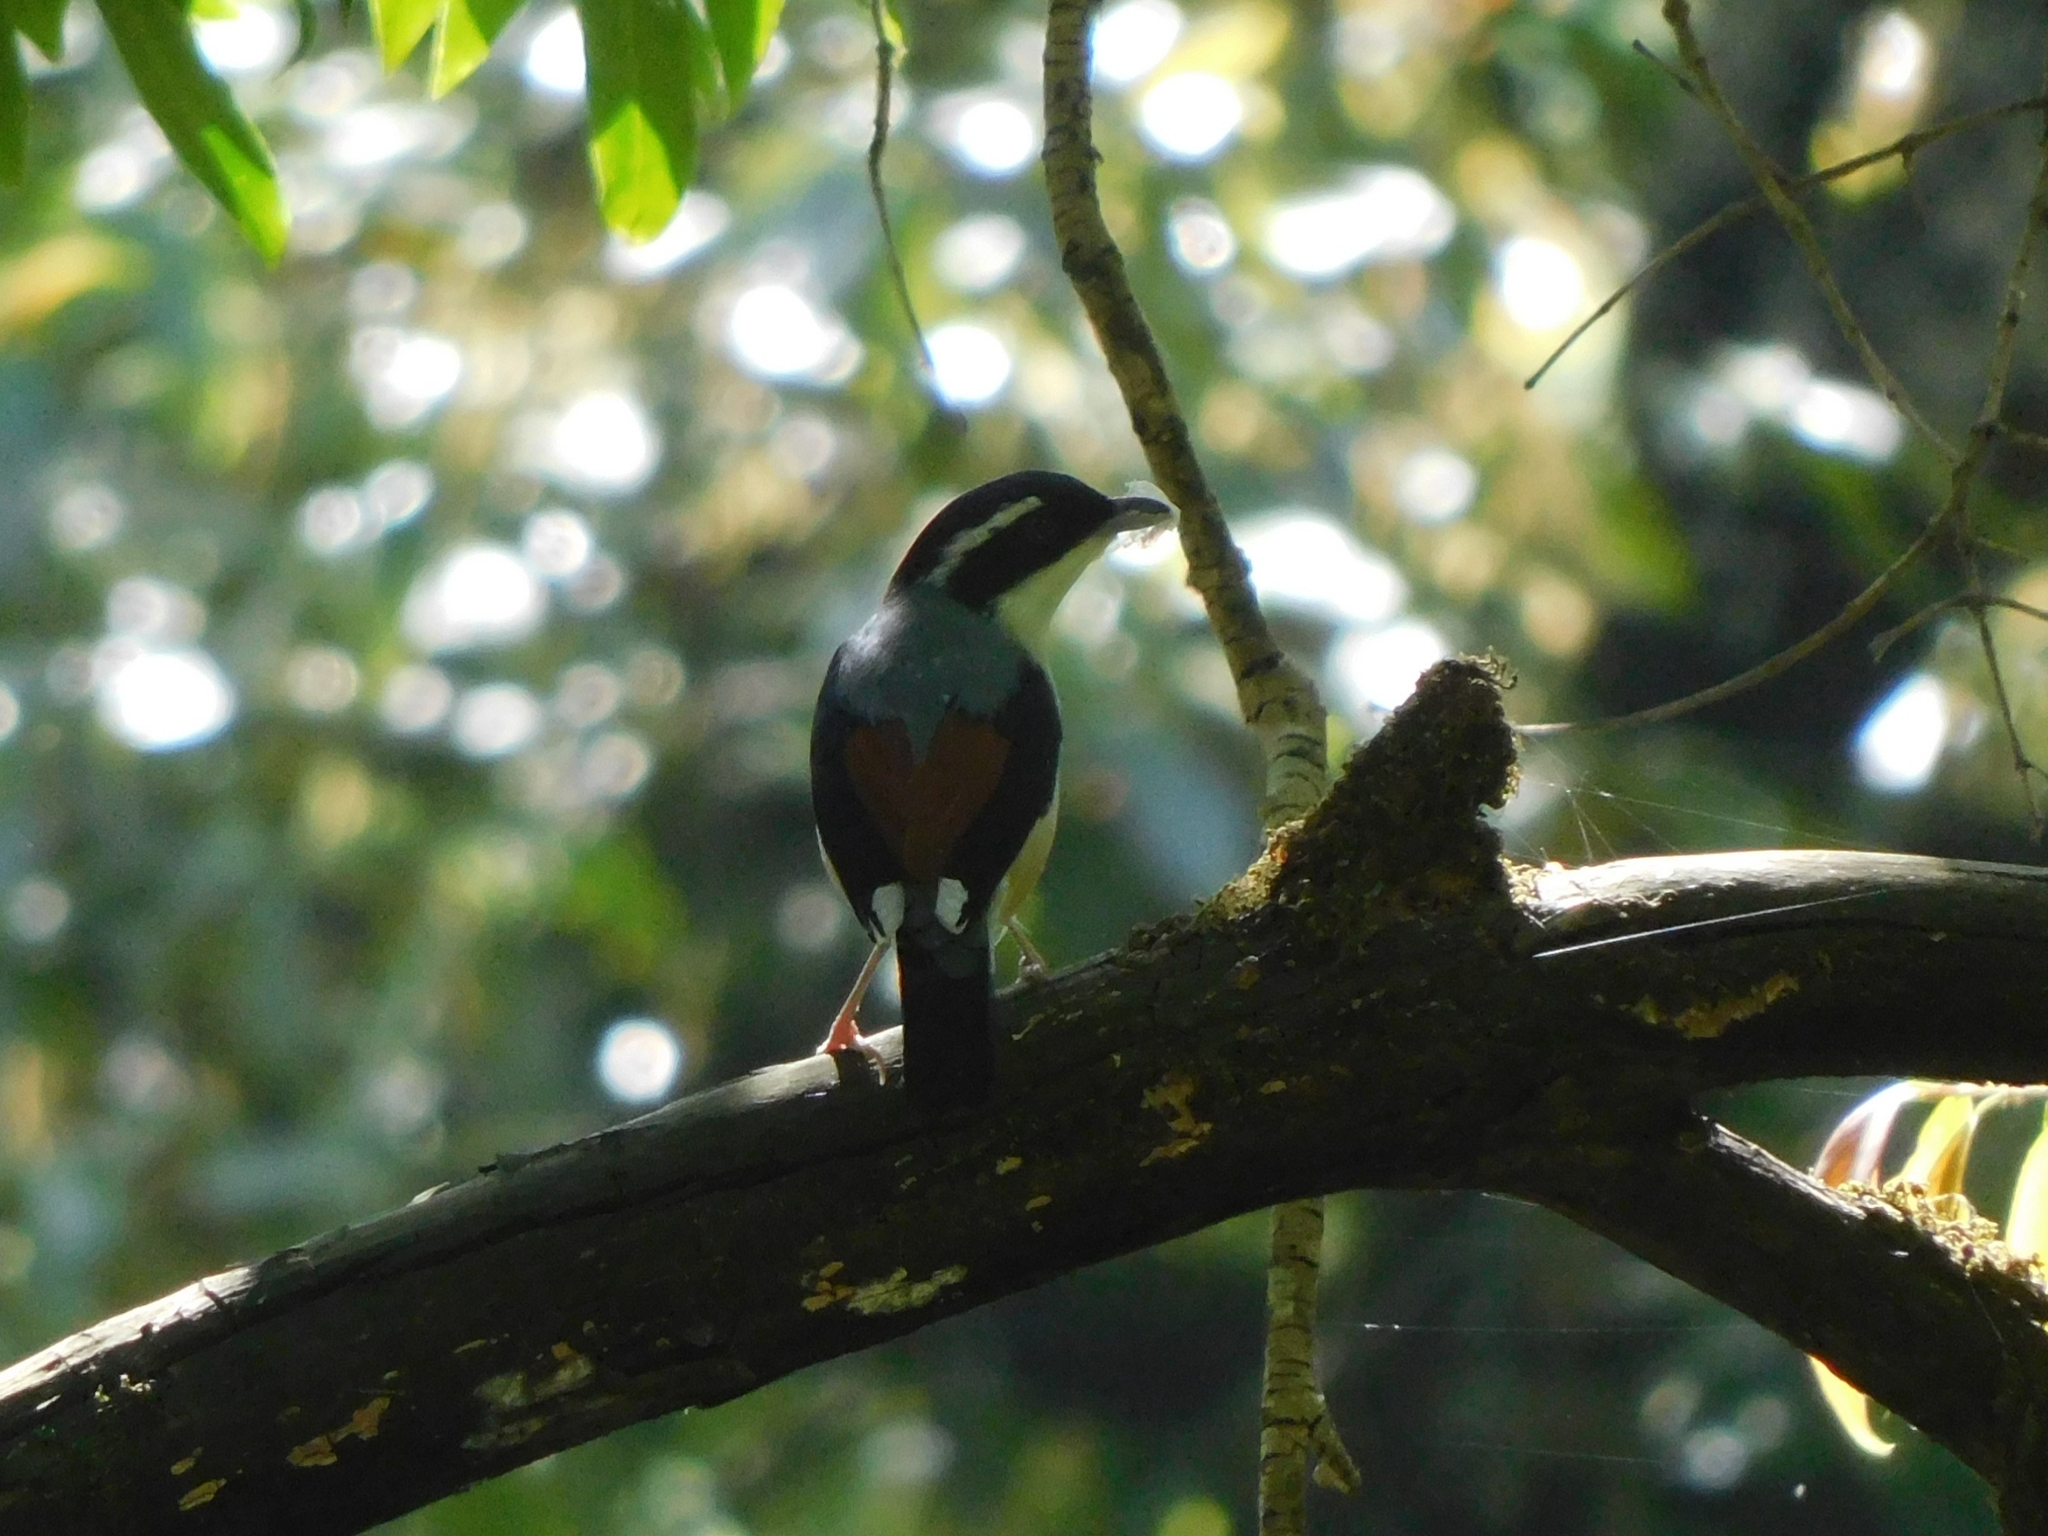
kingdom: Animalia
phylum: Chordata
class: Aves
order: Passeriformes
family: Vireonidae
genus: Pteruthius
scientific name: Pteruthius aeralatus
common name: Blyth's shrike-babbler
